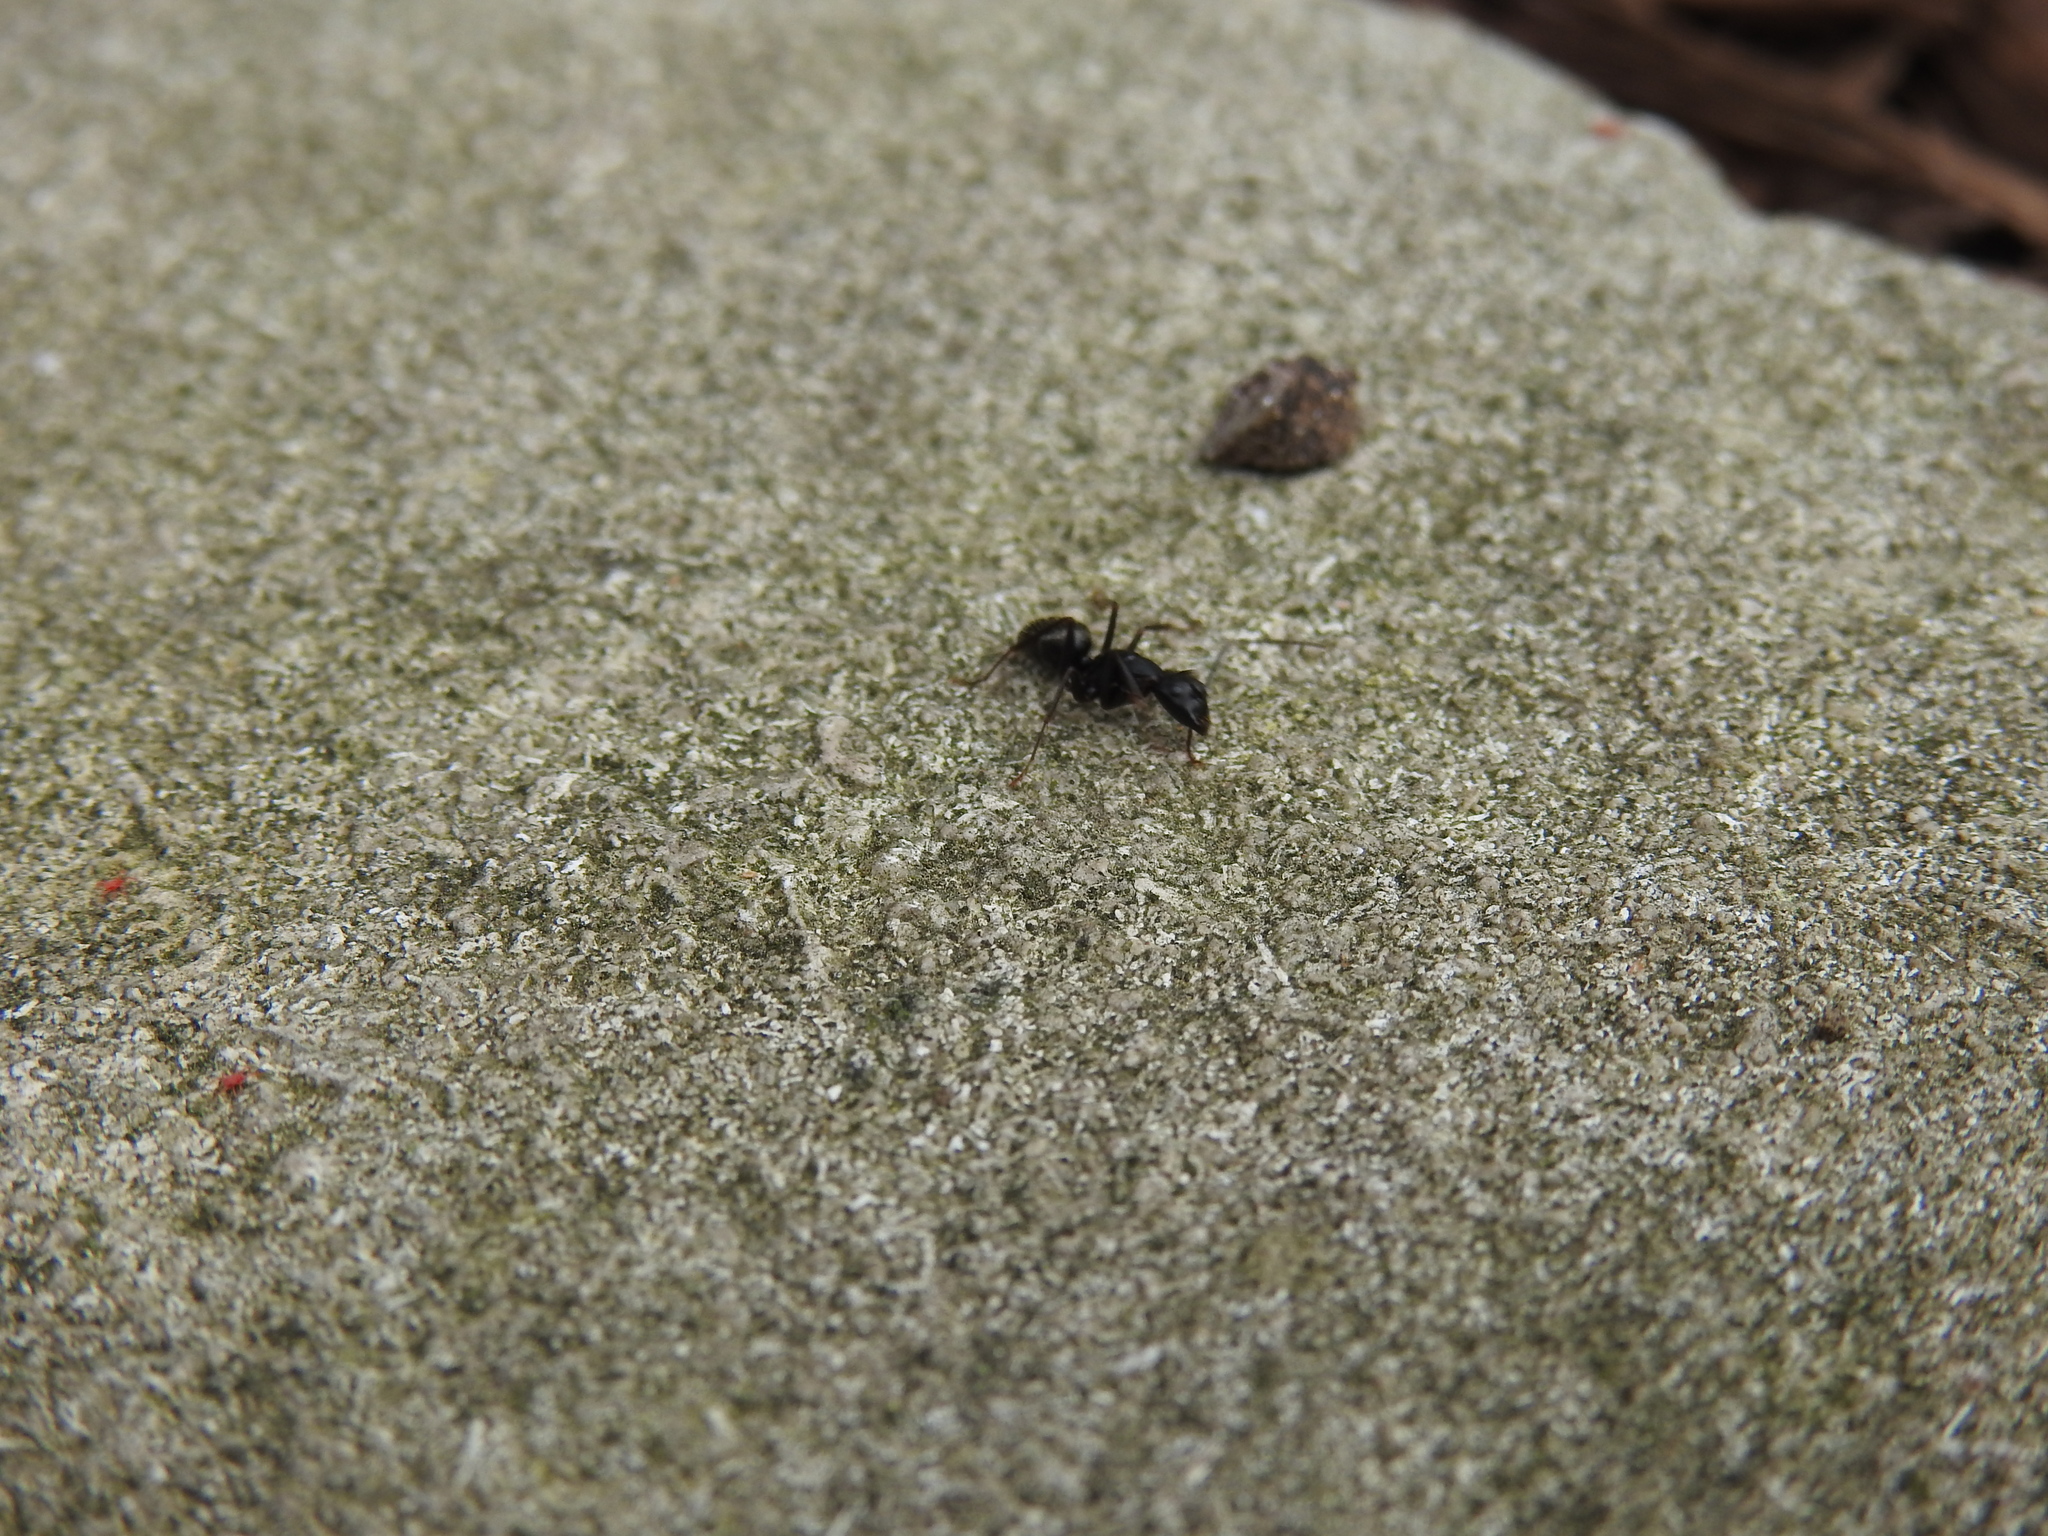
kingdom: Animalia
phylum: Arthropoda
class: Insecta
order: Hymenoptera
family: Formicidae
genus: Camponotus
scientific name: Camponotus pennsylvanicus
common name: Black carpenter ant
